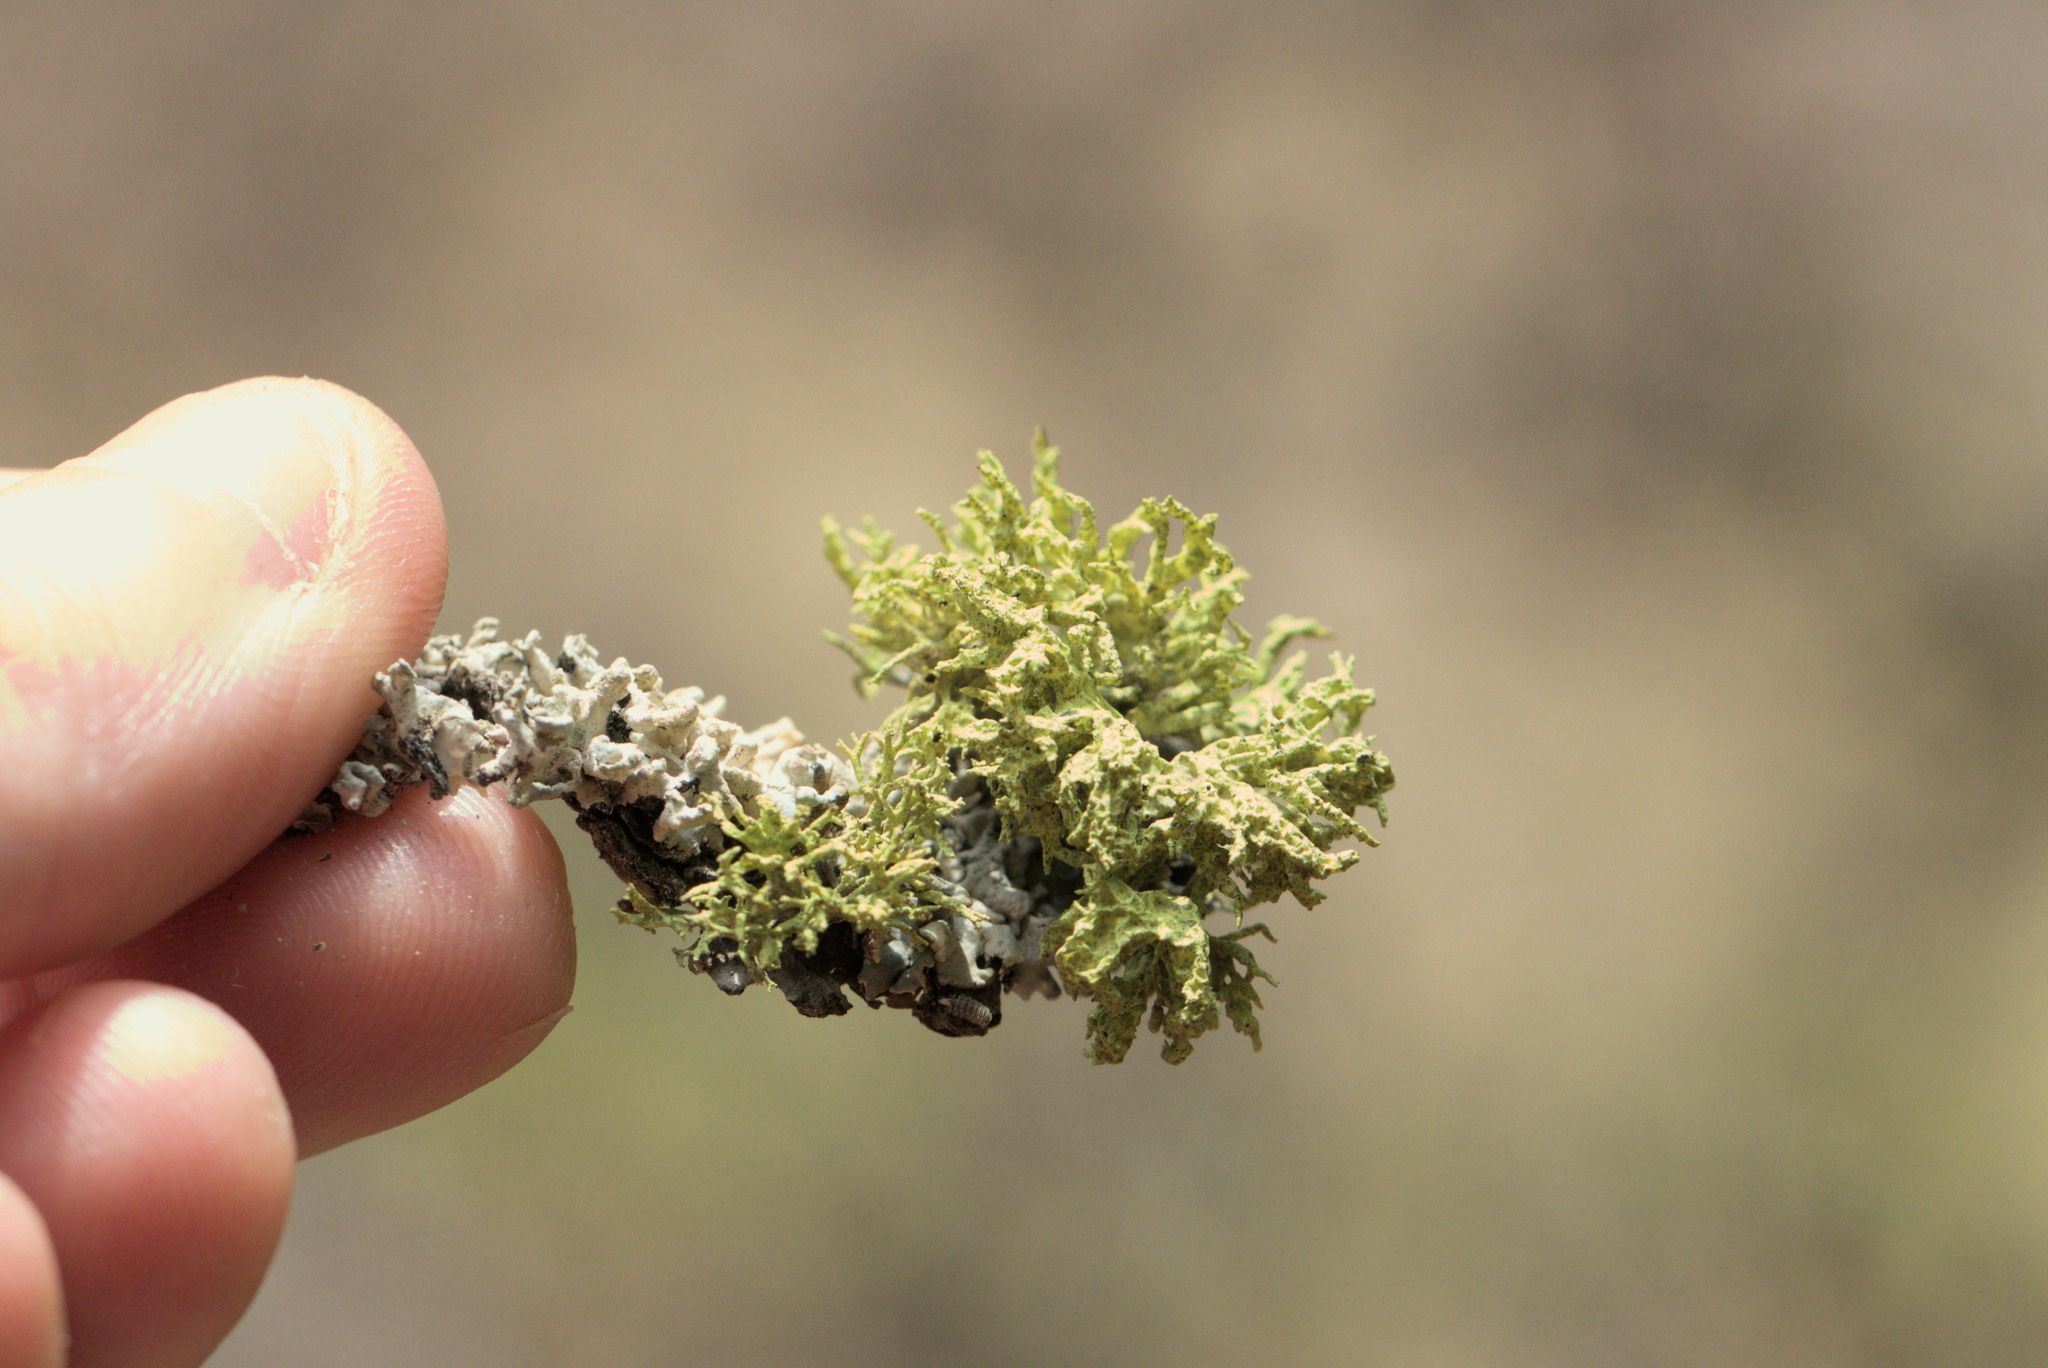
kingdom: Fungi
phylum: Ascomycota
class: Lecanoromycetes
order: Lecanorales
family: Parmeliaceae
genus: Letharia
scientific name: Letharia vulpina
